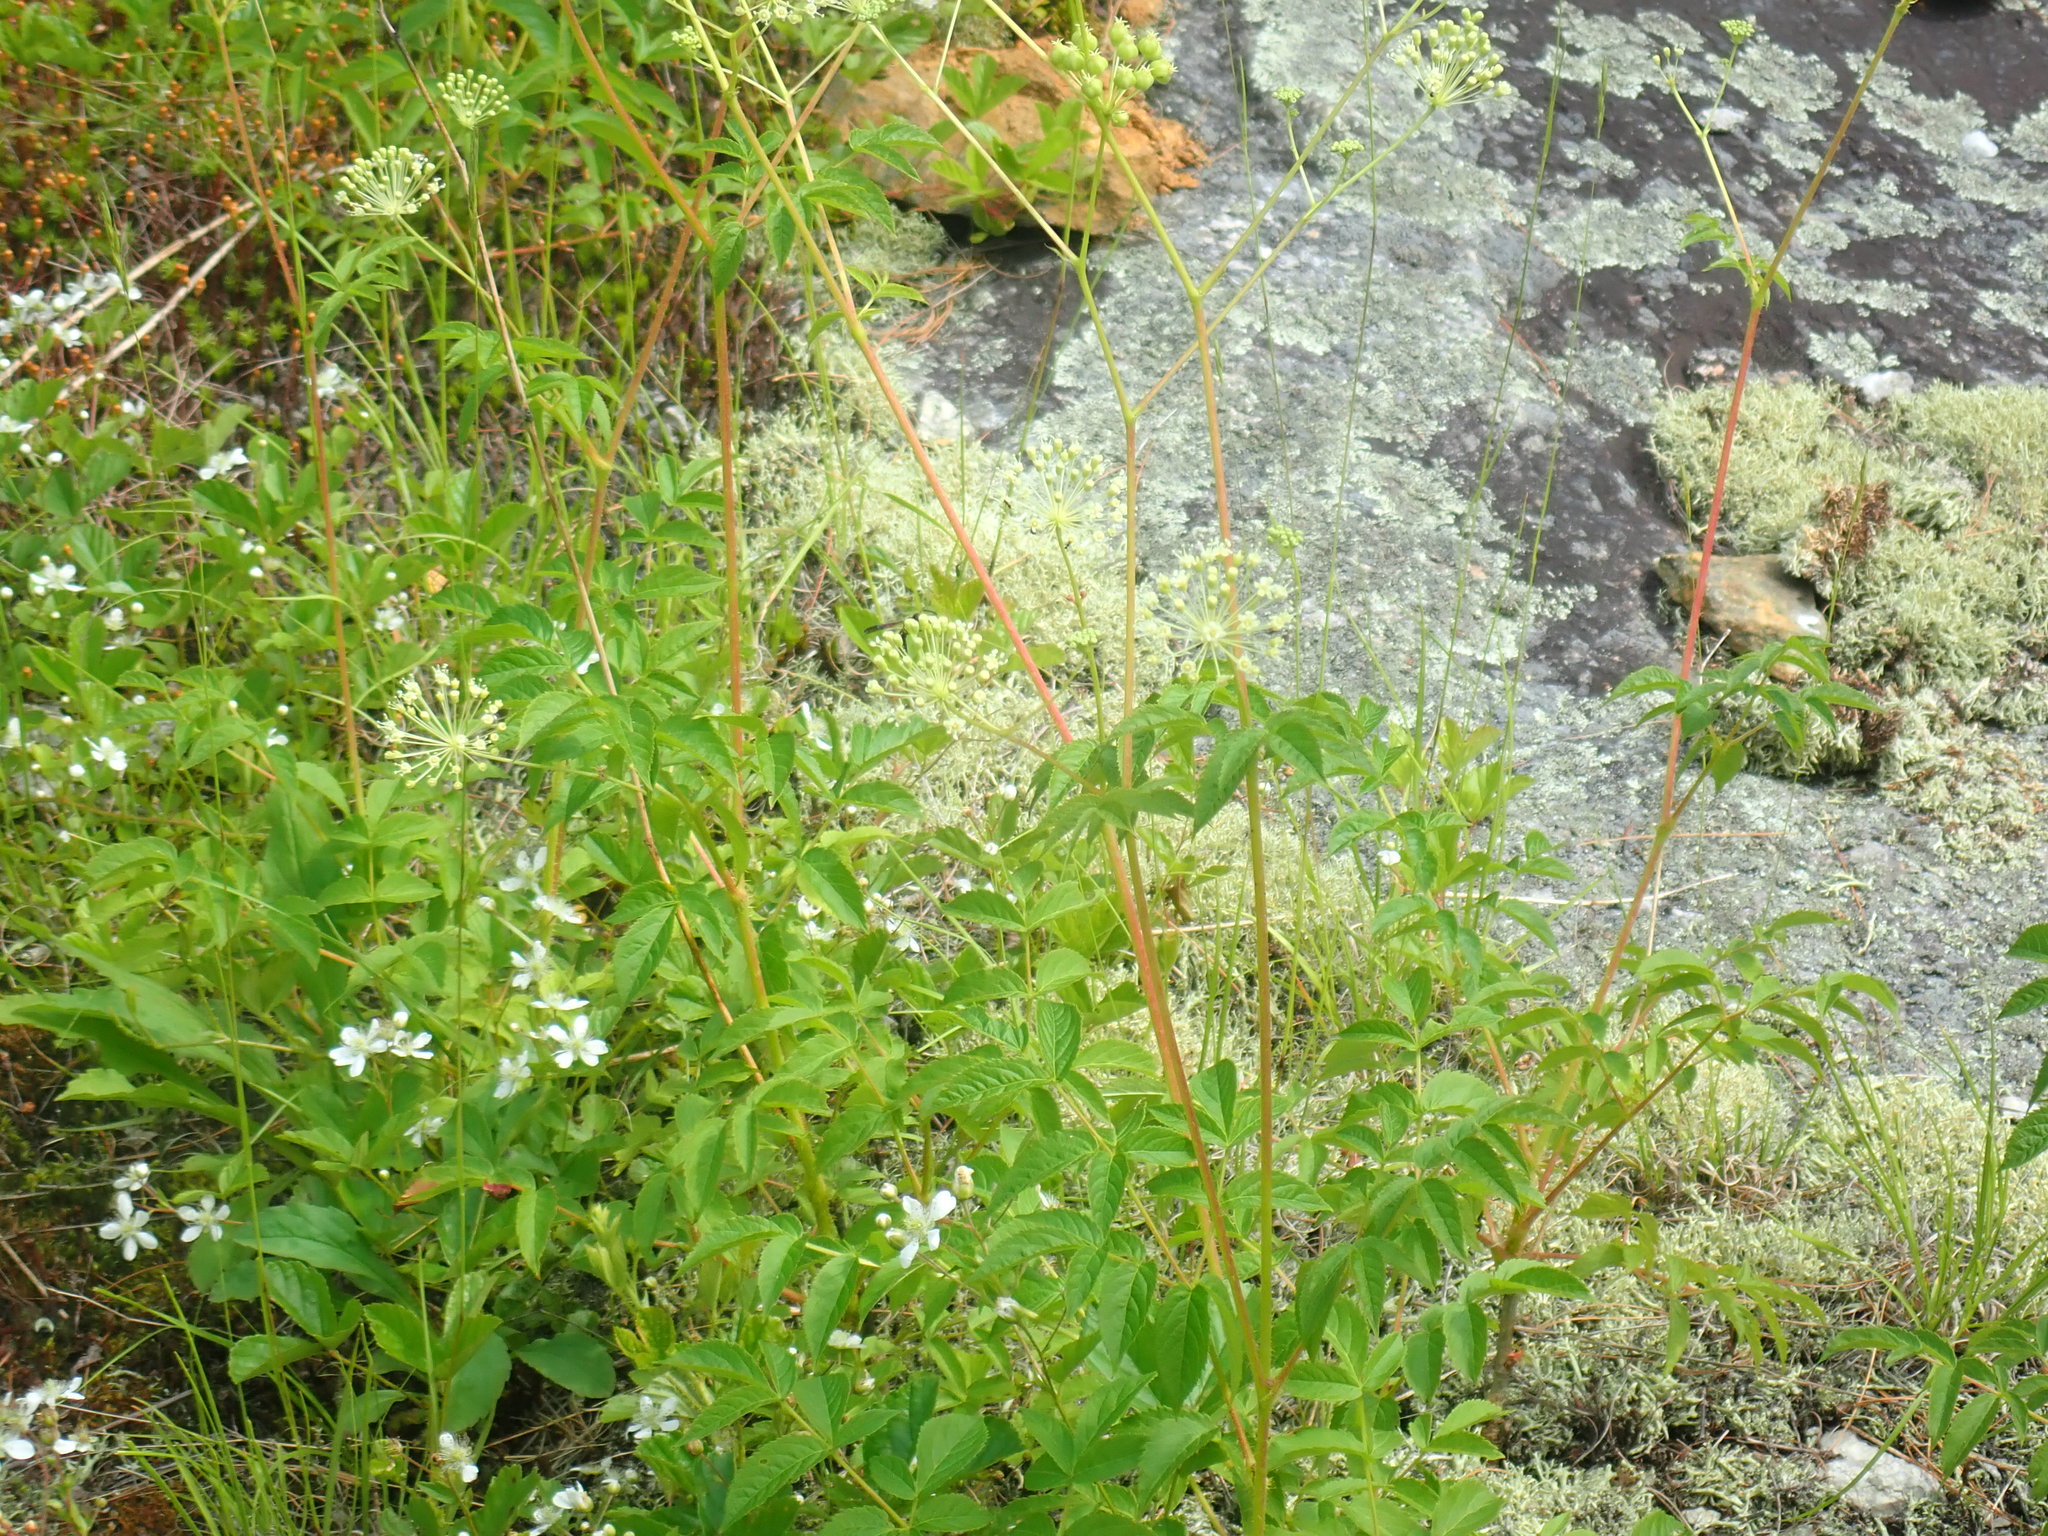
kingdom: Plantae
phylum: Tracheophyta
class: Magnoliopsida
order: Apiales
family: Araliaceae
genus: Aralia
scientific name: Aralia hispida
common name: Bristly sarsaparilla
